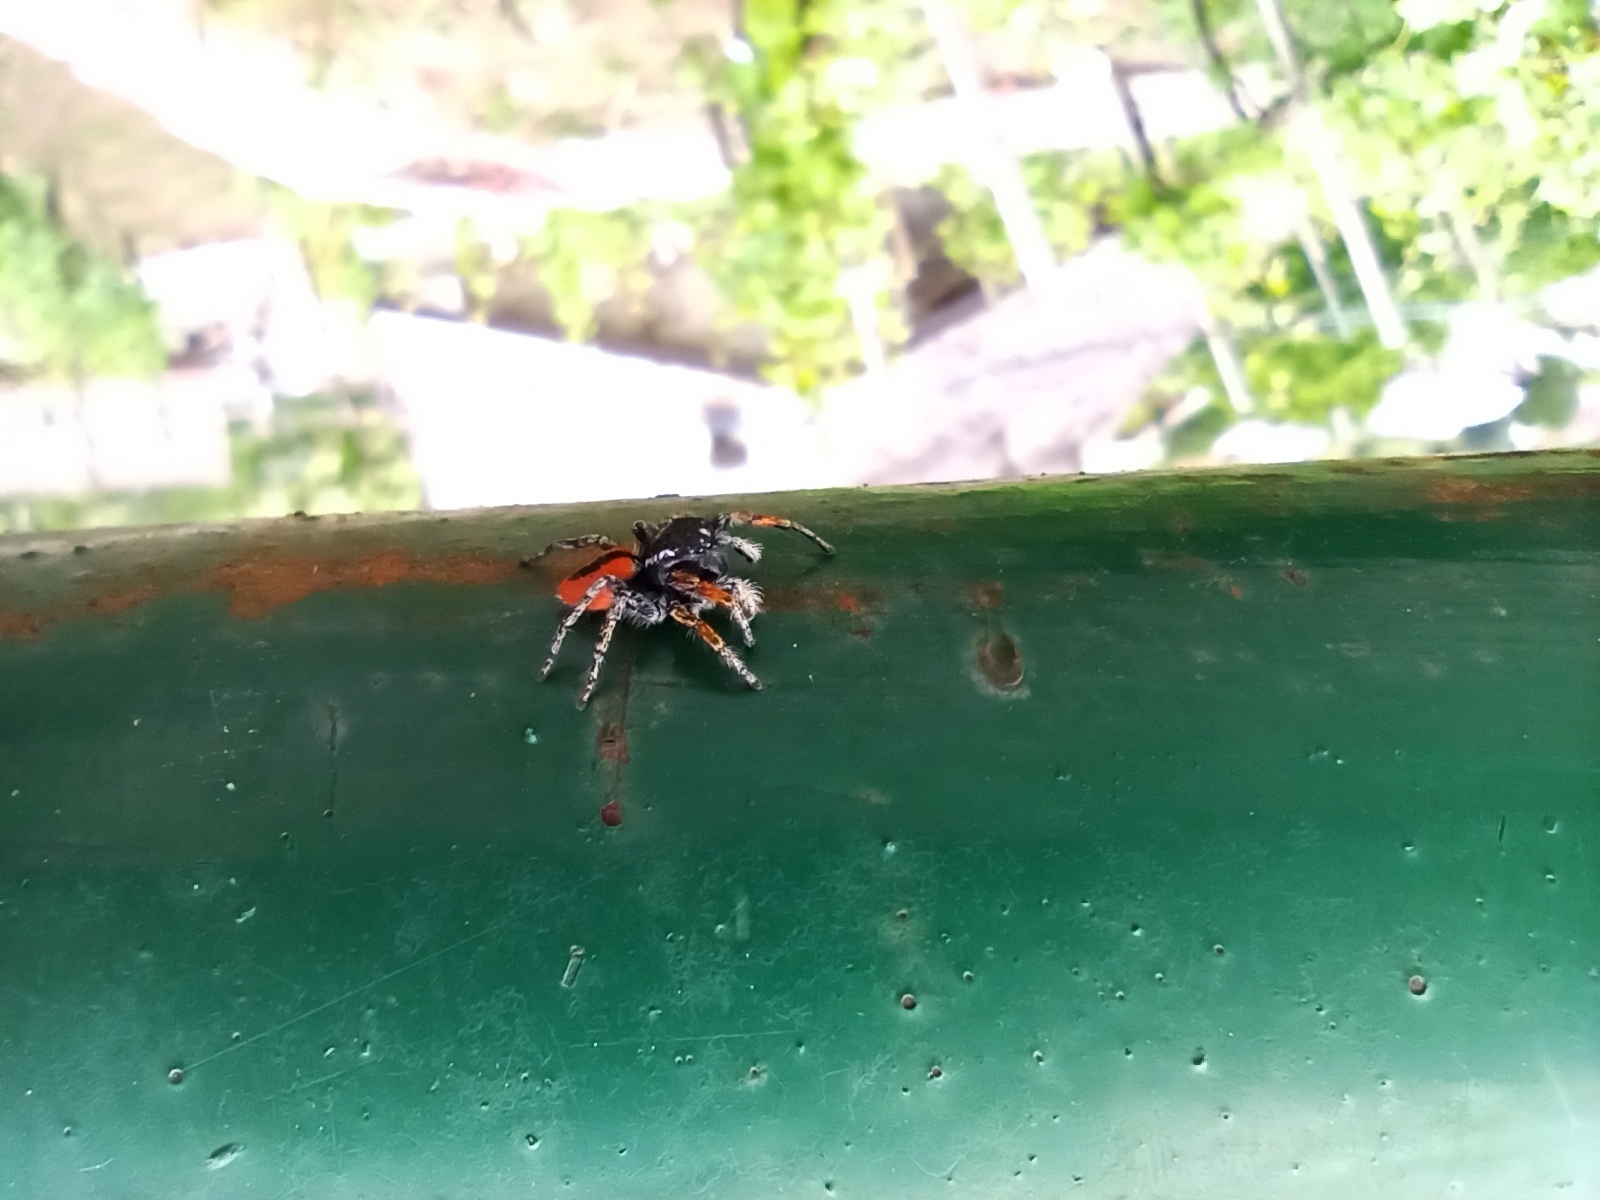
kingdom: Animalia
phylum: Arthropoda
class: Arachnida
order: Araneae
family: Salticidae
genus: Philaeus
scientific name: Philaeus chrysops
